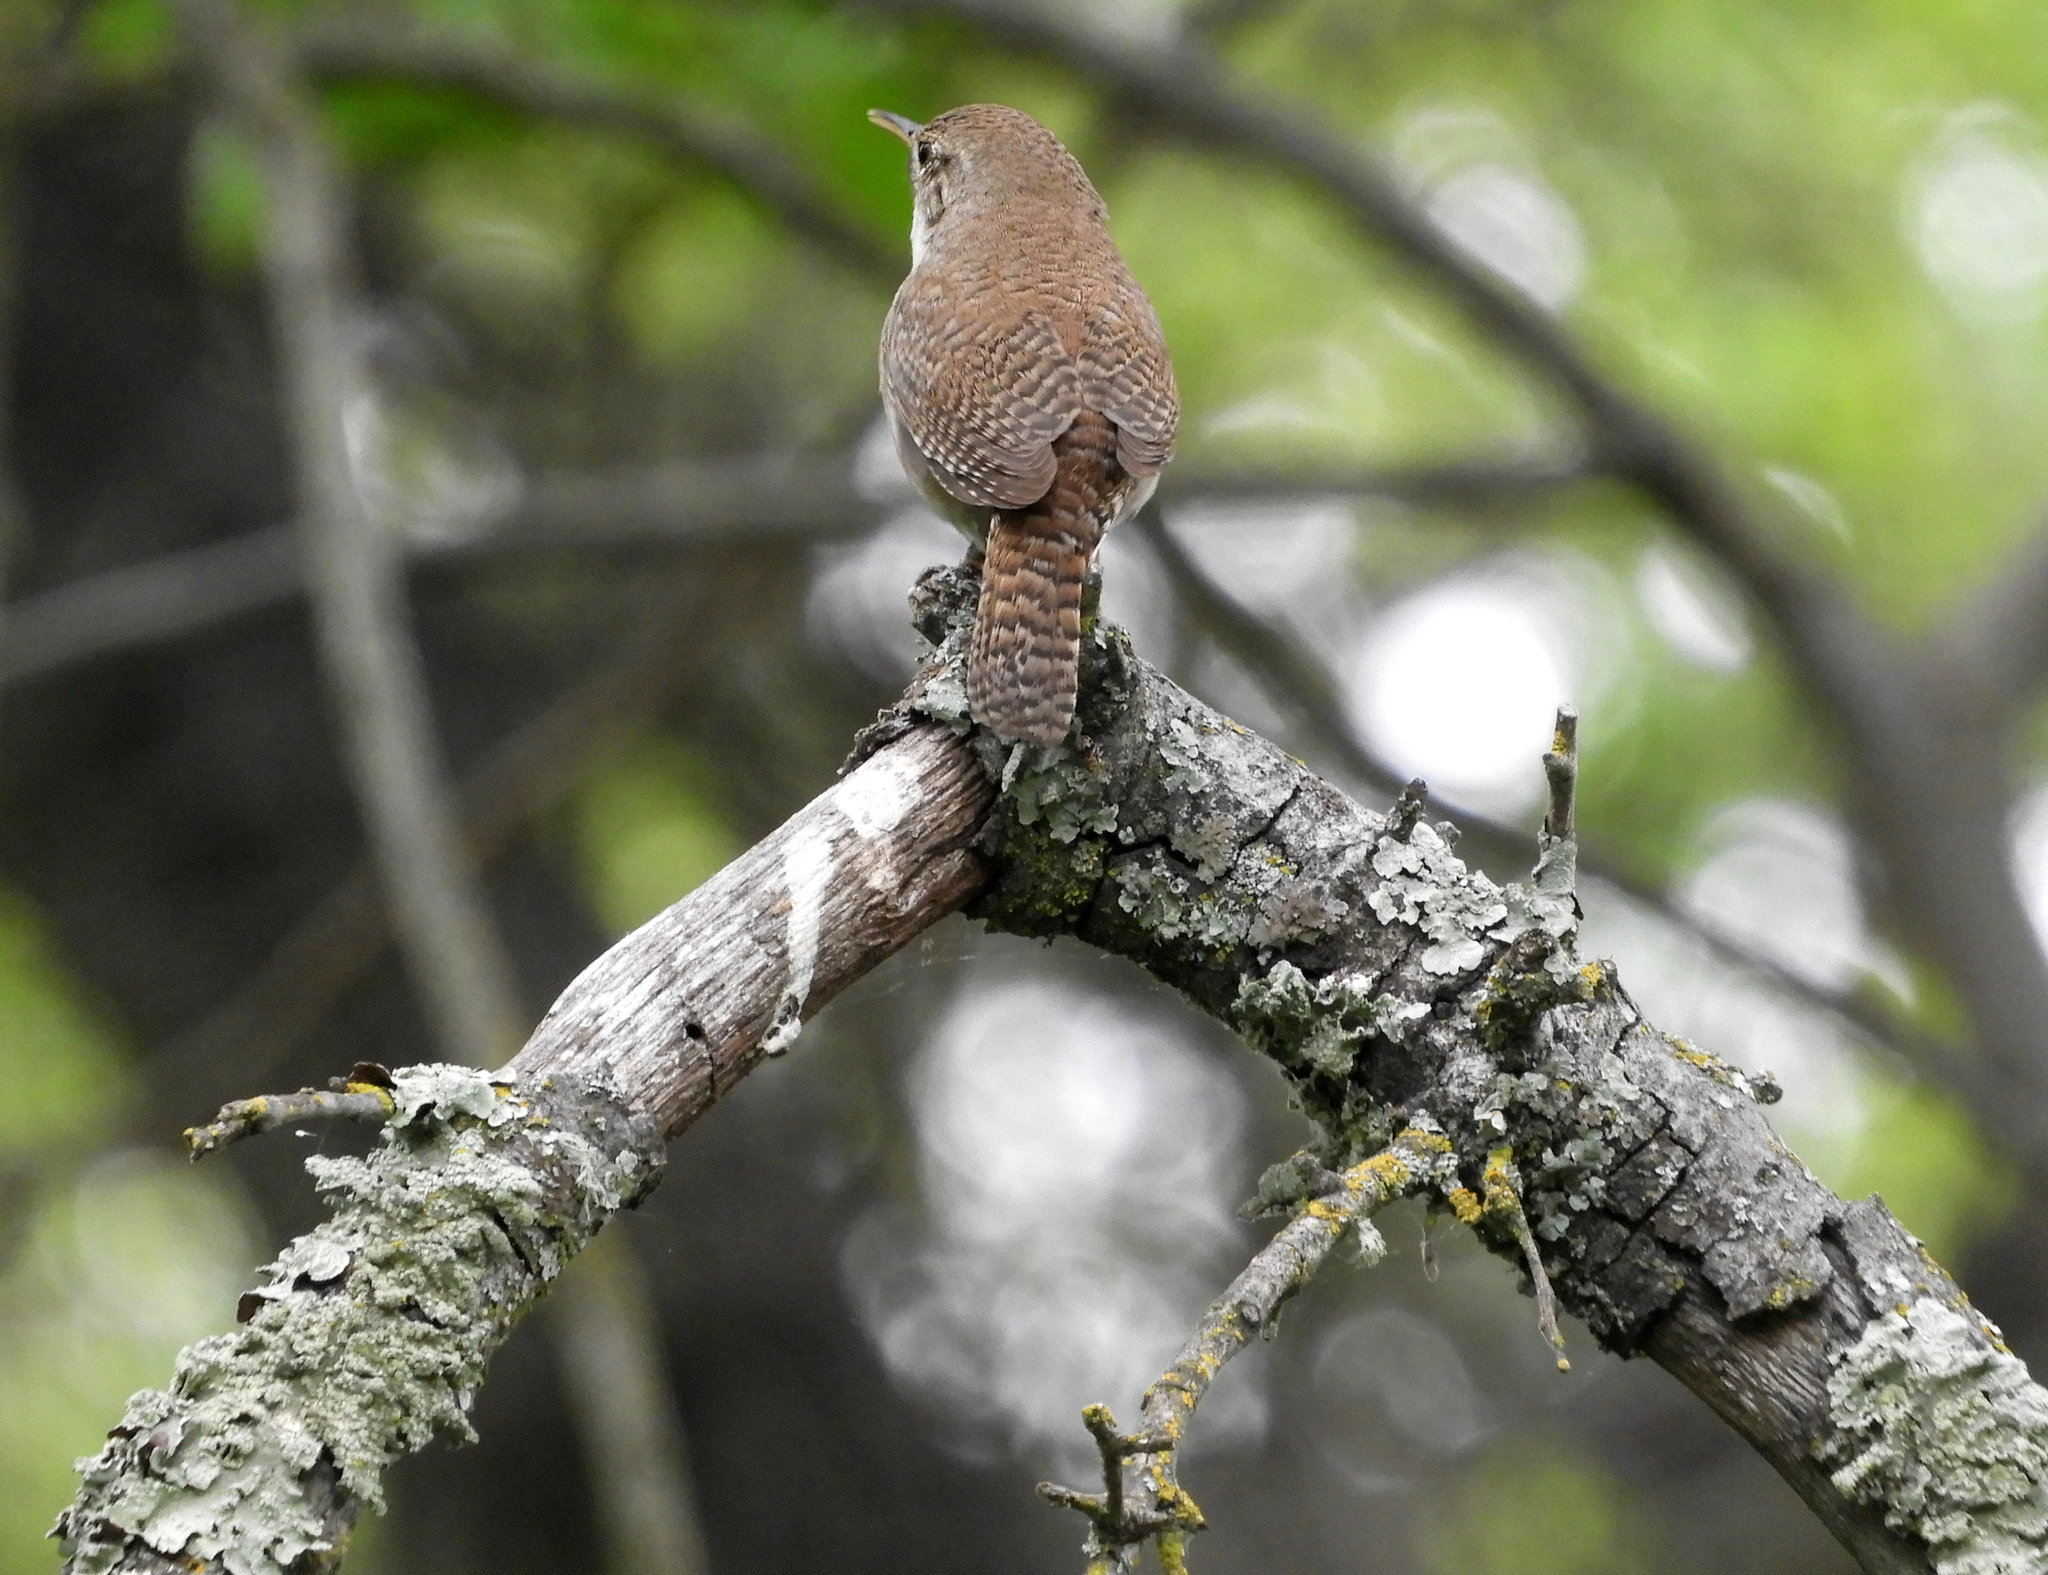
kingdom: Animalia
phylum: Chordata
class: Aves
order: Passeriformes
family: Troglodytidae
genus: Troglodytes
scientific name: Troglodytes aedon
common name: House wren
